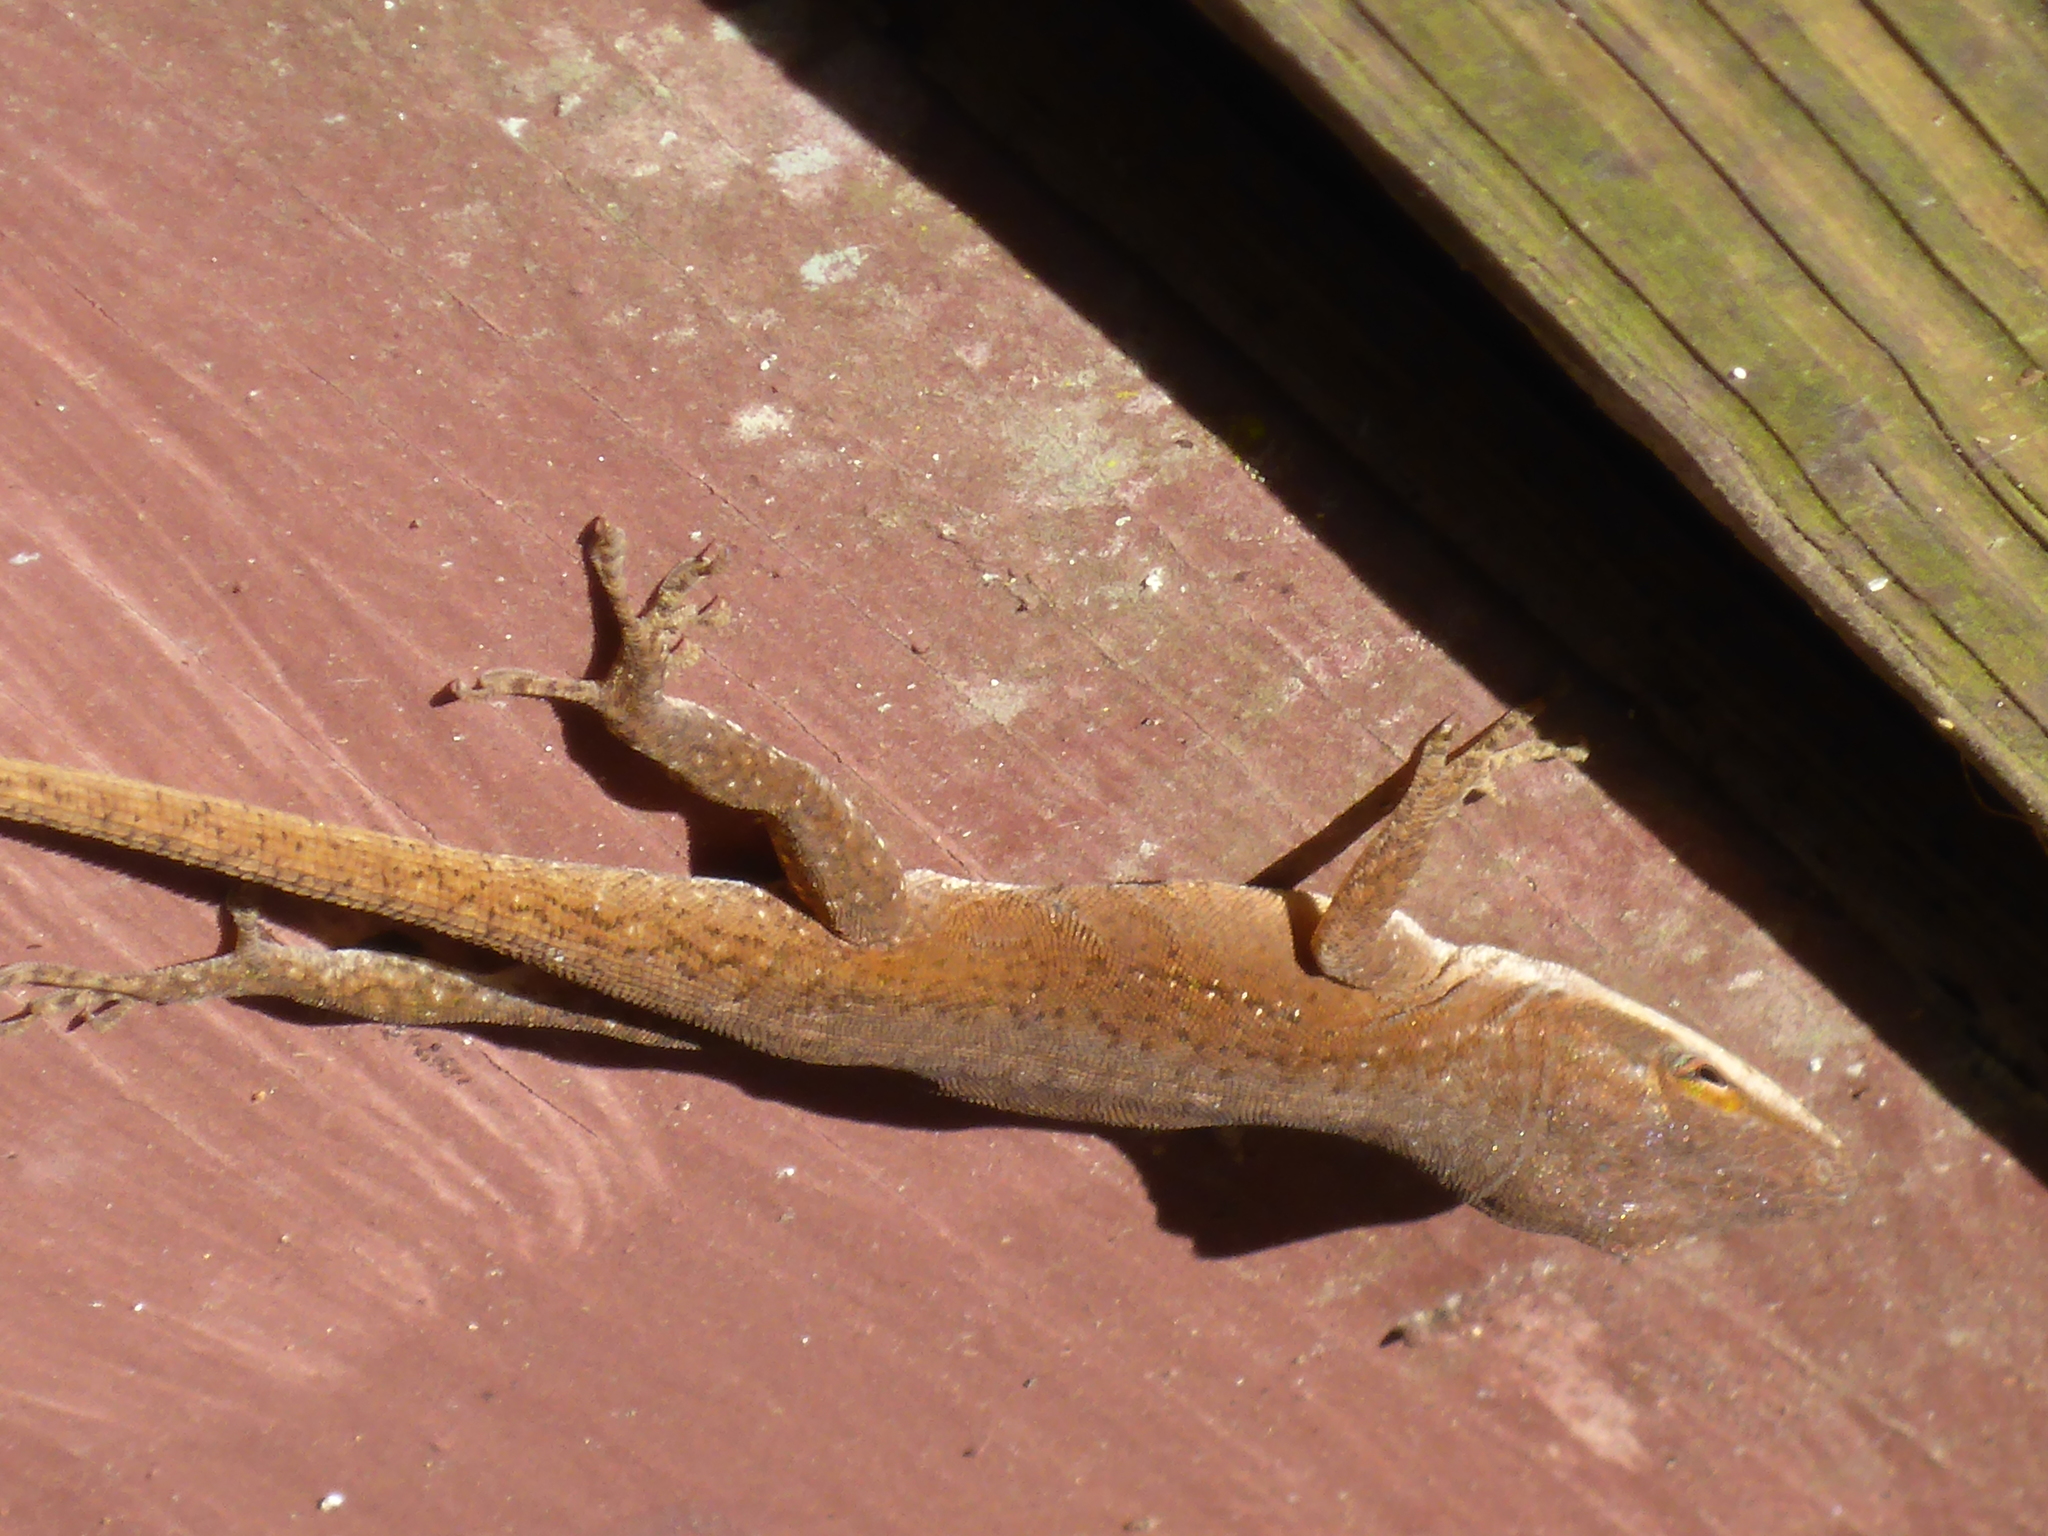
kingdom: Animalia
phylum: Chordata
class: Squamata
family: Dactyloidae
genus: Anolis
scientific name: Anolis carolinensis
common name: Green anole
